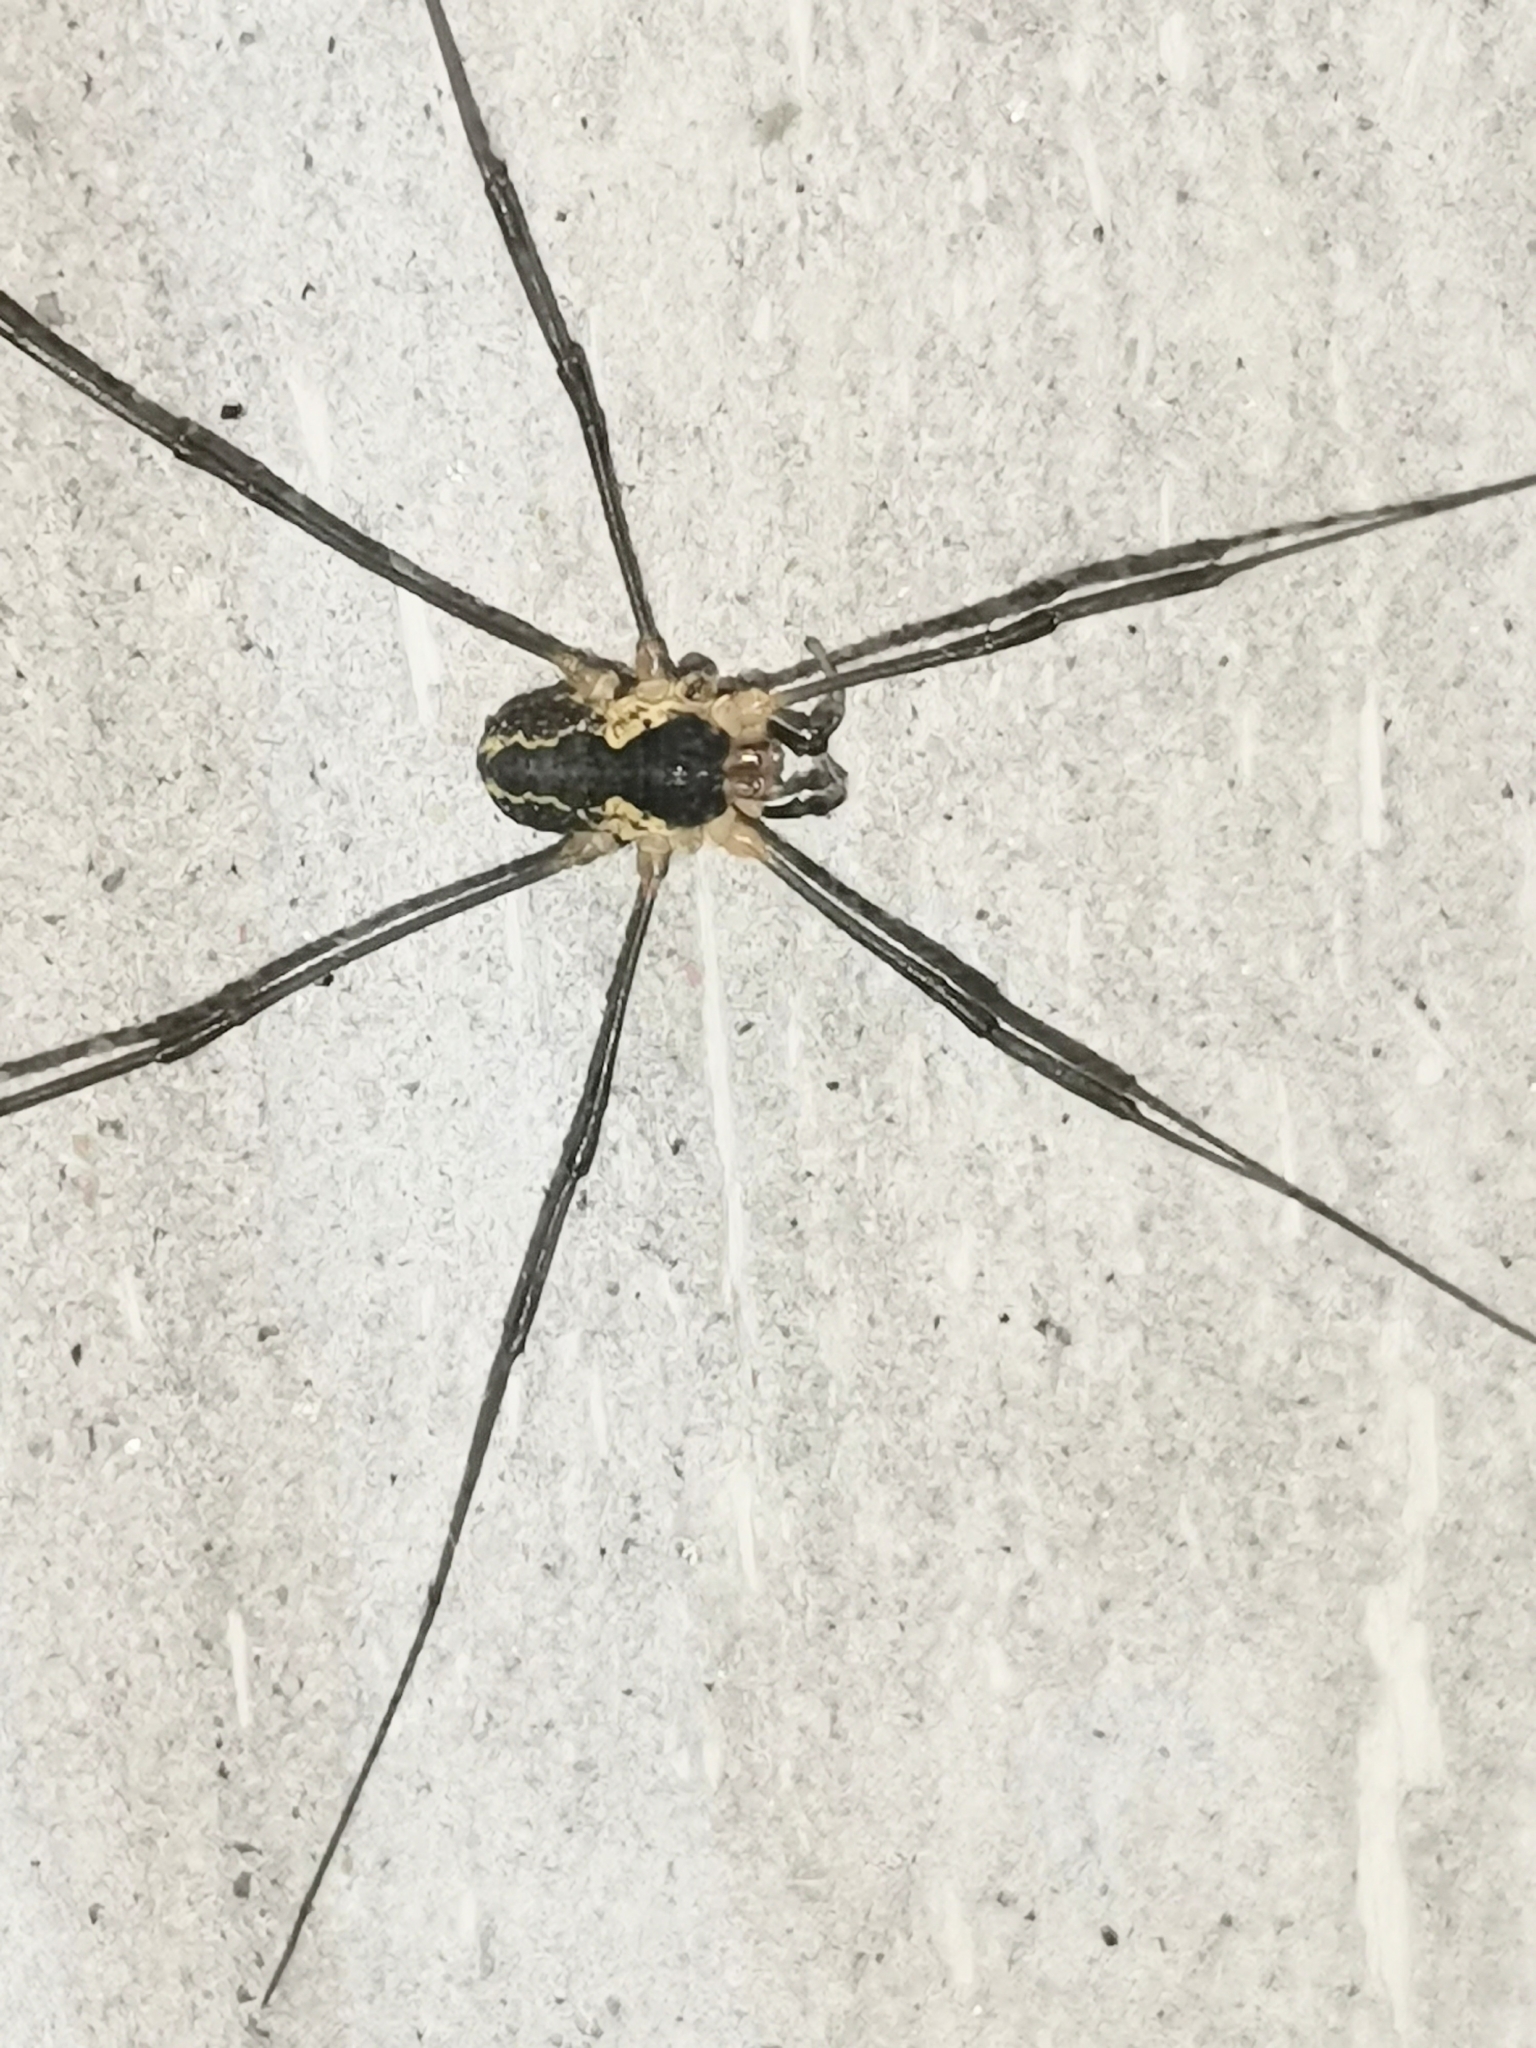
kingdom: Animalia
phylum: Arthropoda
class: Arachnida
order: Opiliones
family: Phalangiidae
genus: Mitopus
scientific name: Mitopus morio
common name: Saddleback harvestman
